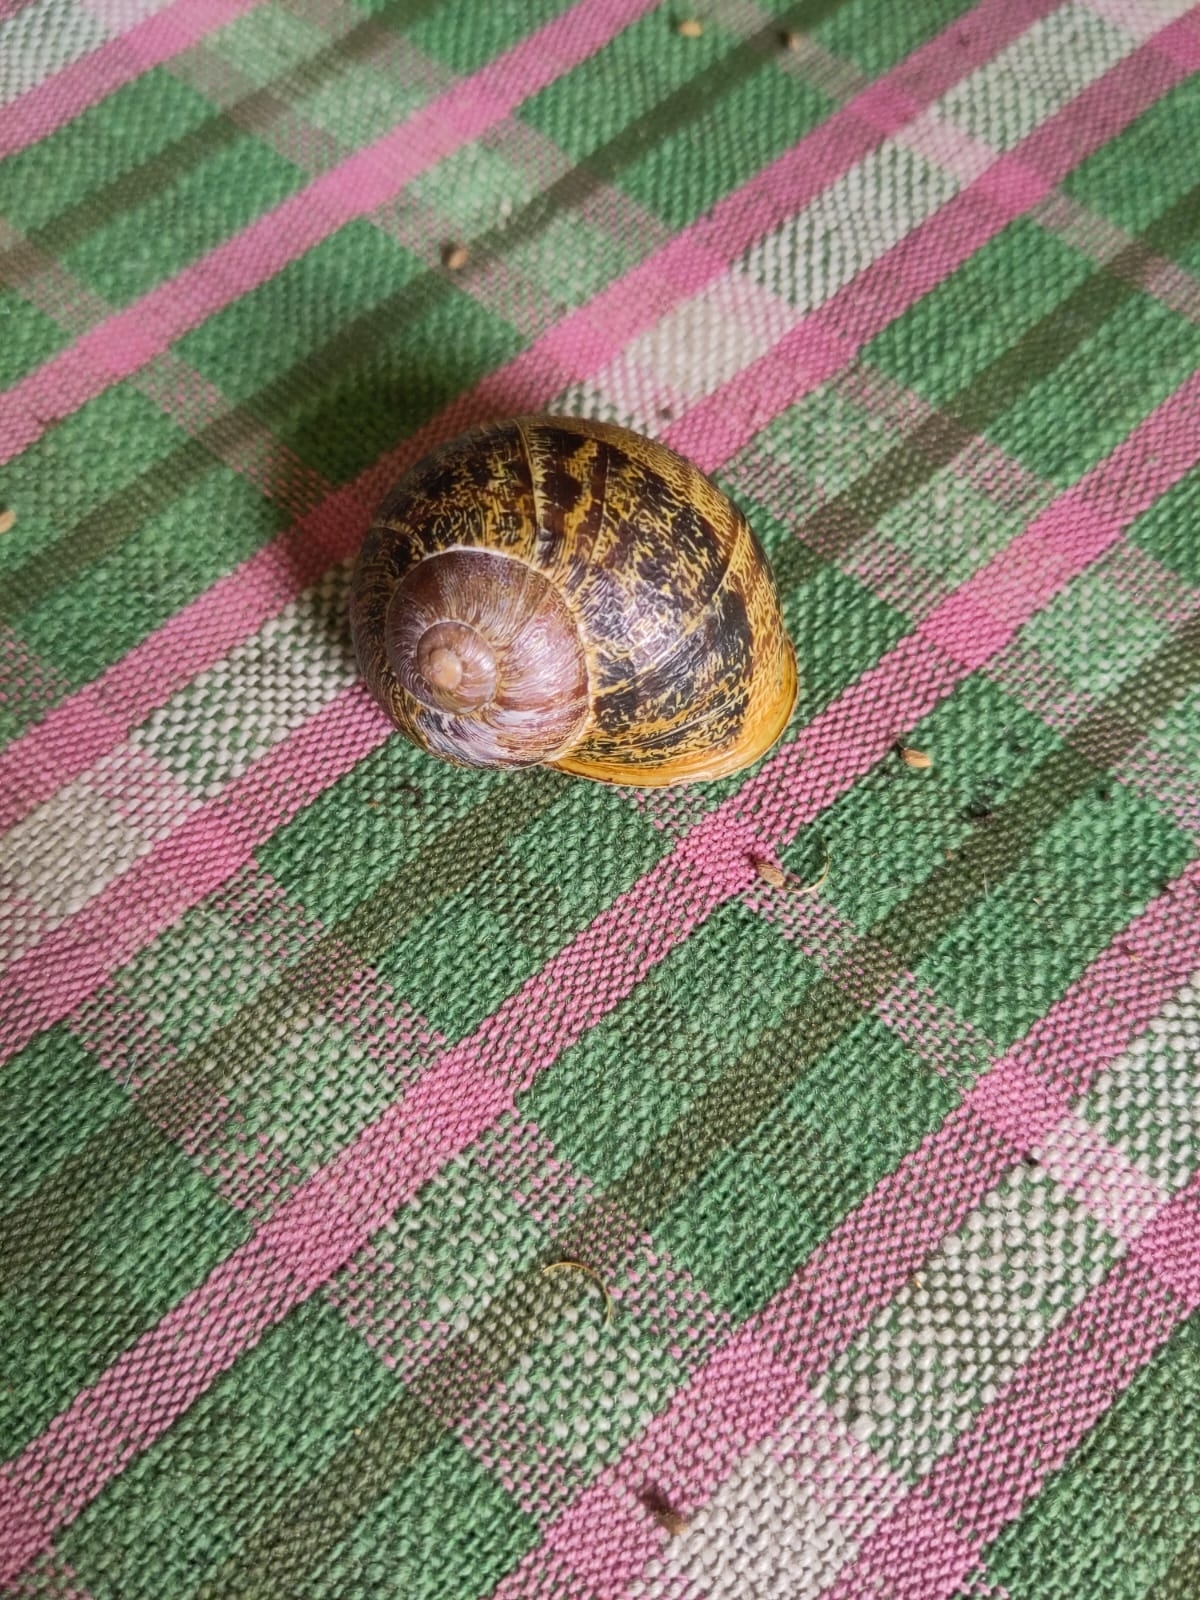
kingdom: Animalia
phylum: Mollusca
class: Gastropoda
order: Stylommatophora
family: Helicidae
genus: Cornu
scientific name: Cornu aspersum
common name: Brown garden snail
